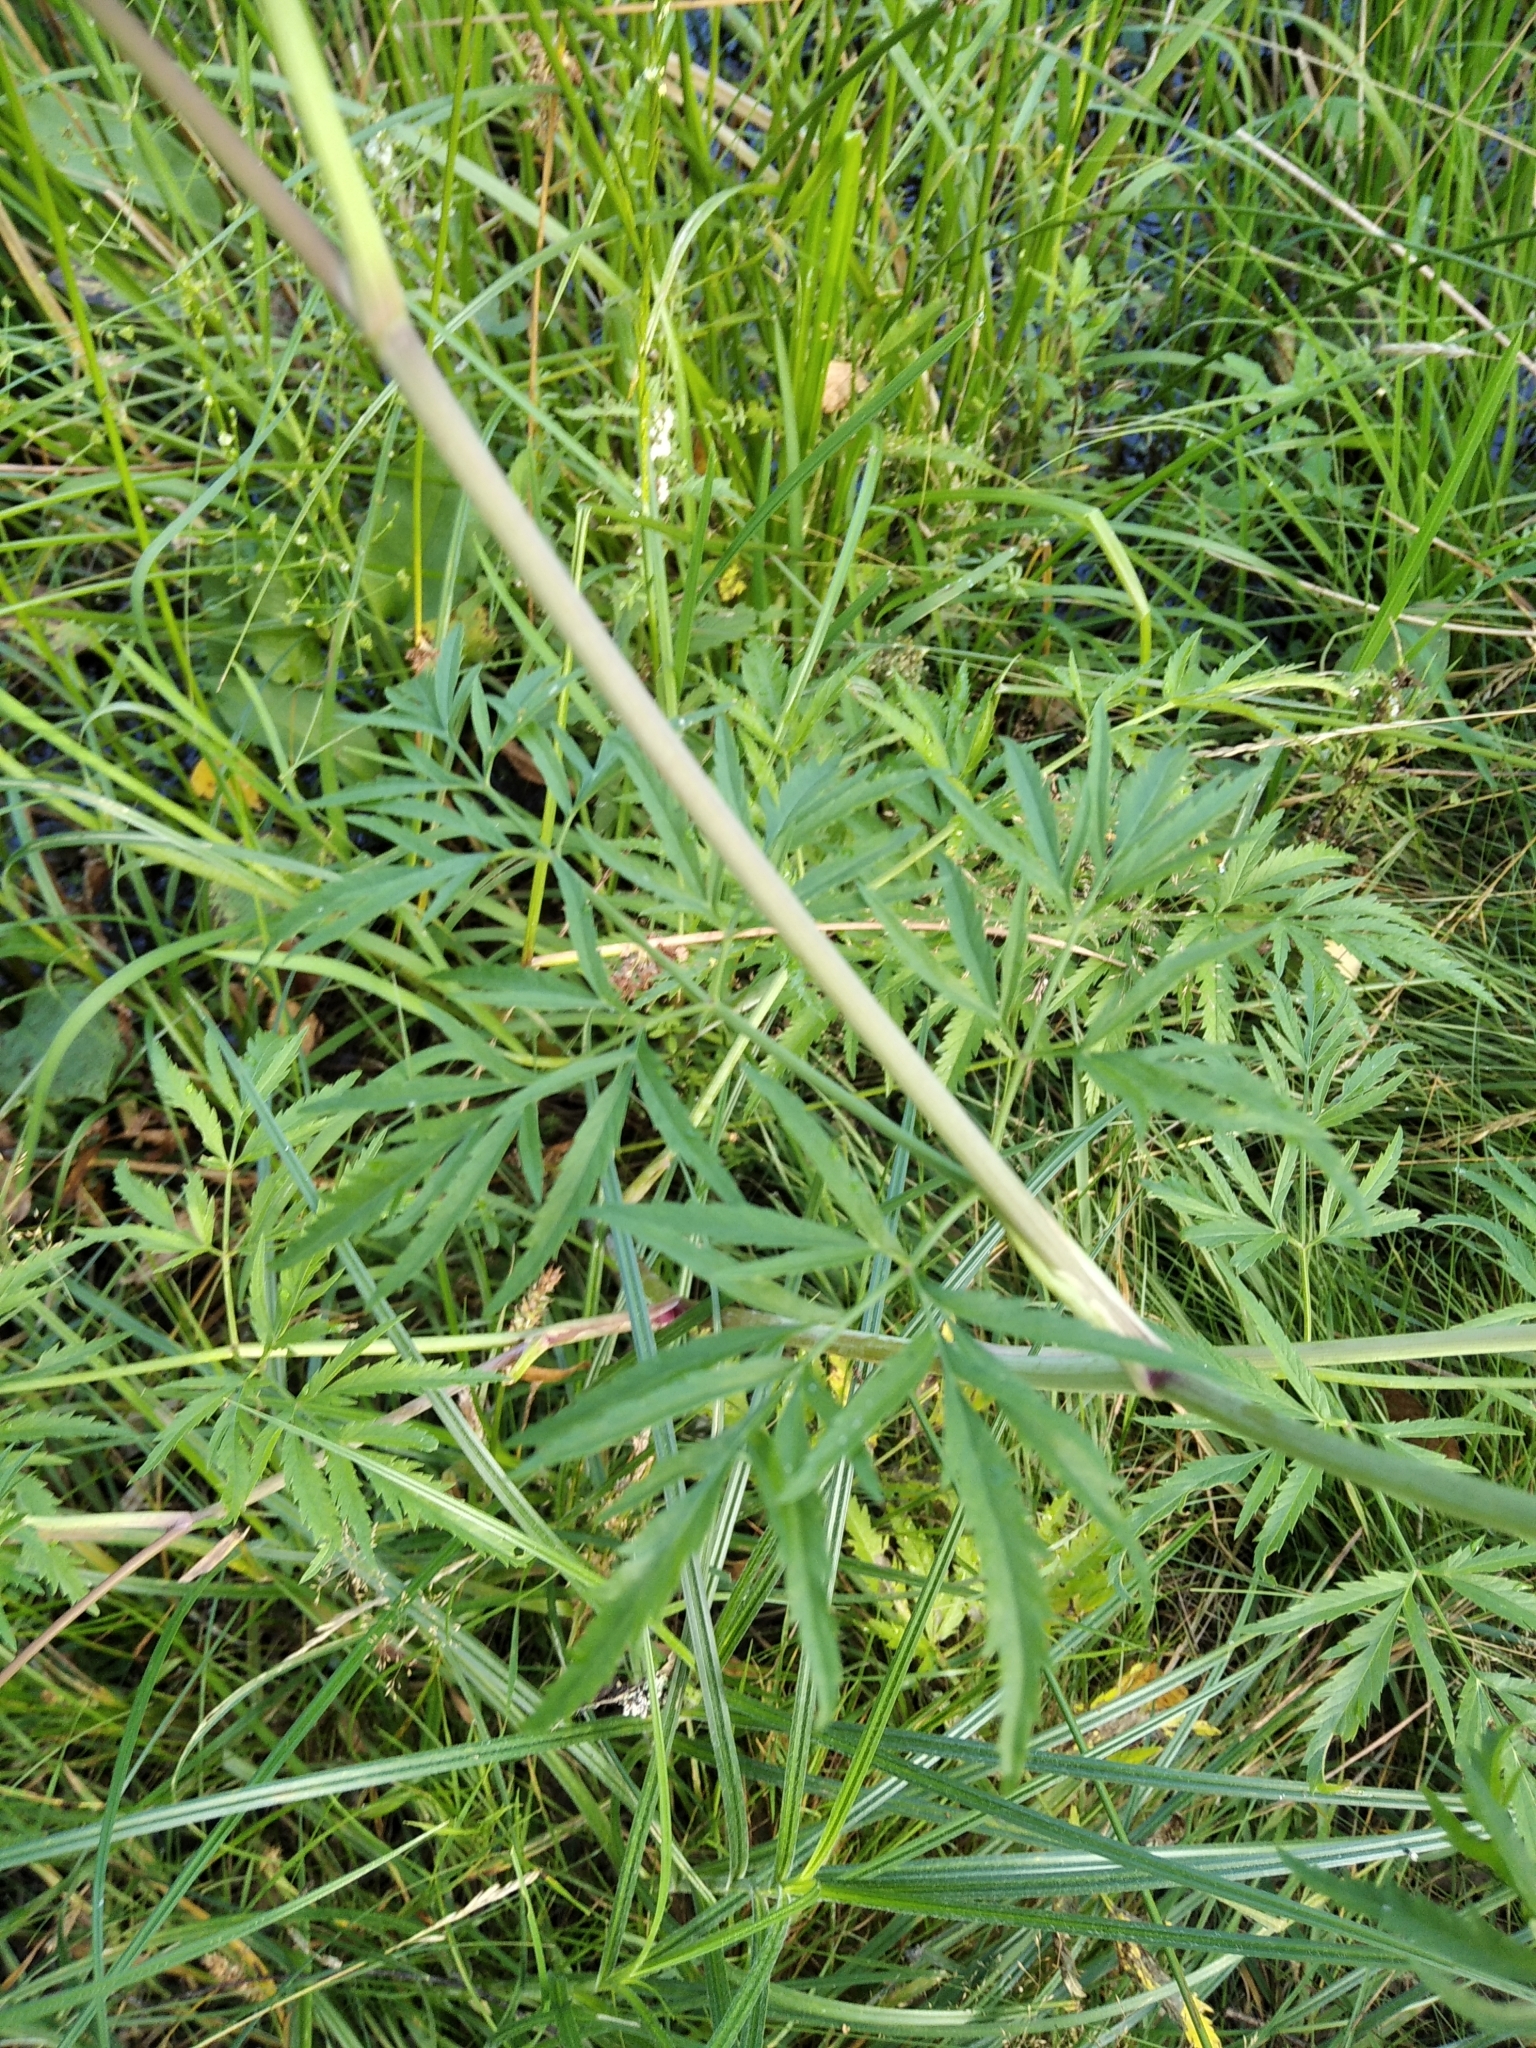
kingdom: Plantae
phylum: Tracheophyta
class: Magnoliopsida
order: Apiales
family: Apiaceae
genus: Cicuta
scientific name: Cicuta virosa
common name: Cowbane
